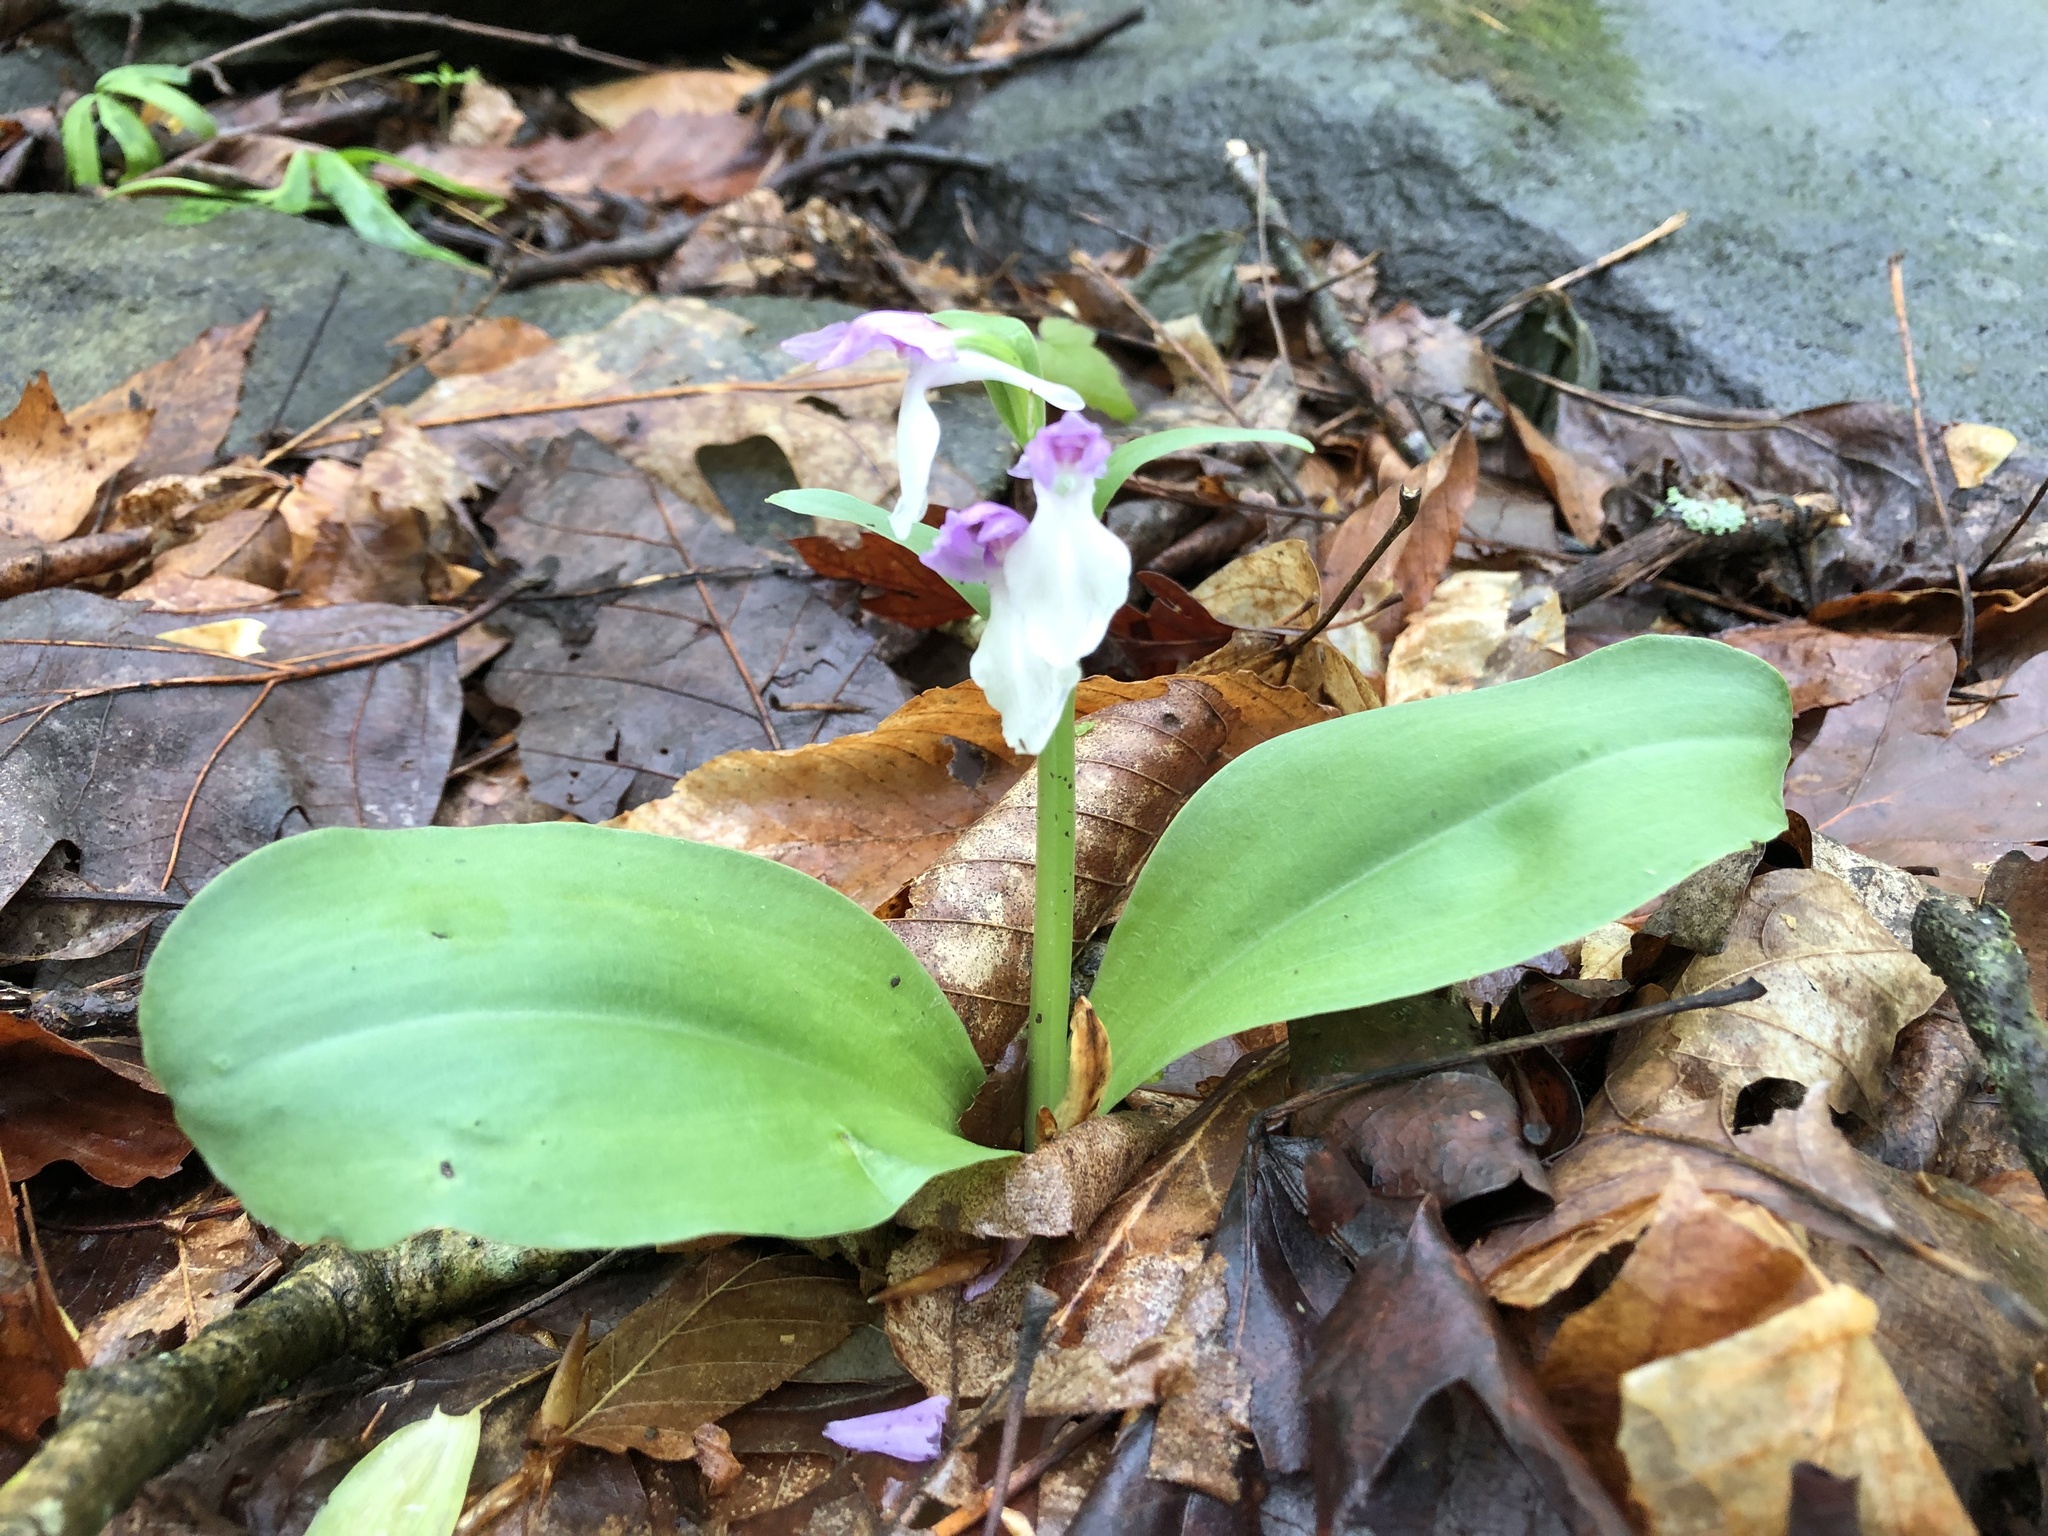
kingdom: Plantae
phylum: Tracheophyta
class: Liliopsida
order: Asparagales
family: Orchidaceae
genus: Galearis
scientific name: Galearis spectabilis
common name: Purple-hooded orchis
